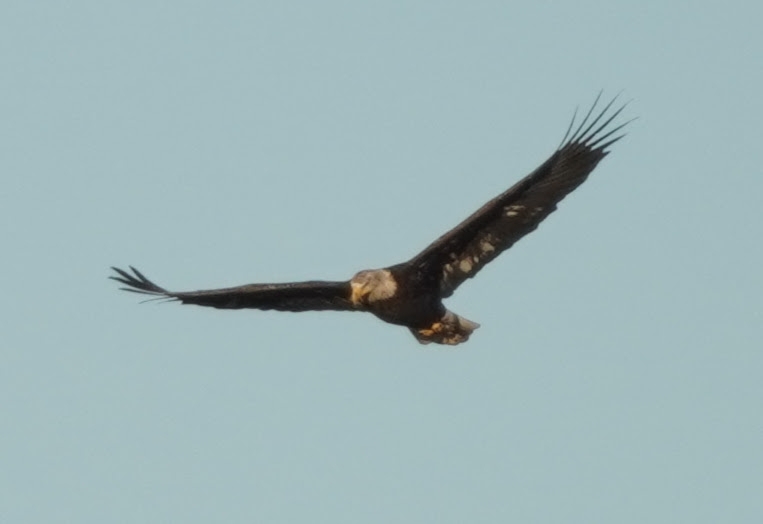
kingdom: Animalia
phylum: Chordata
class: Aves
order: Accipitriformes
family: Accipitridae
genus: Haliaeetus
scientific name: Haliaeetus leucocephalus
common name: Bald eagle
